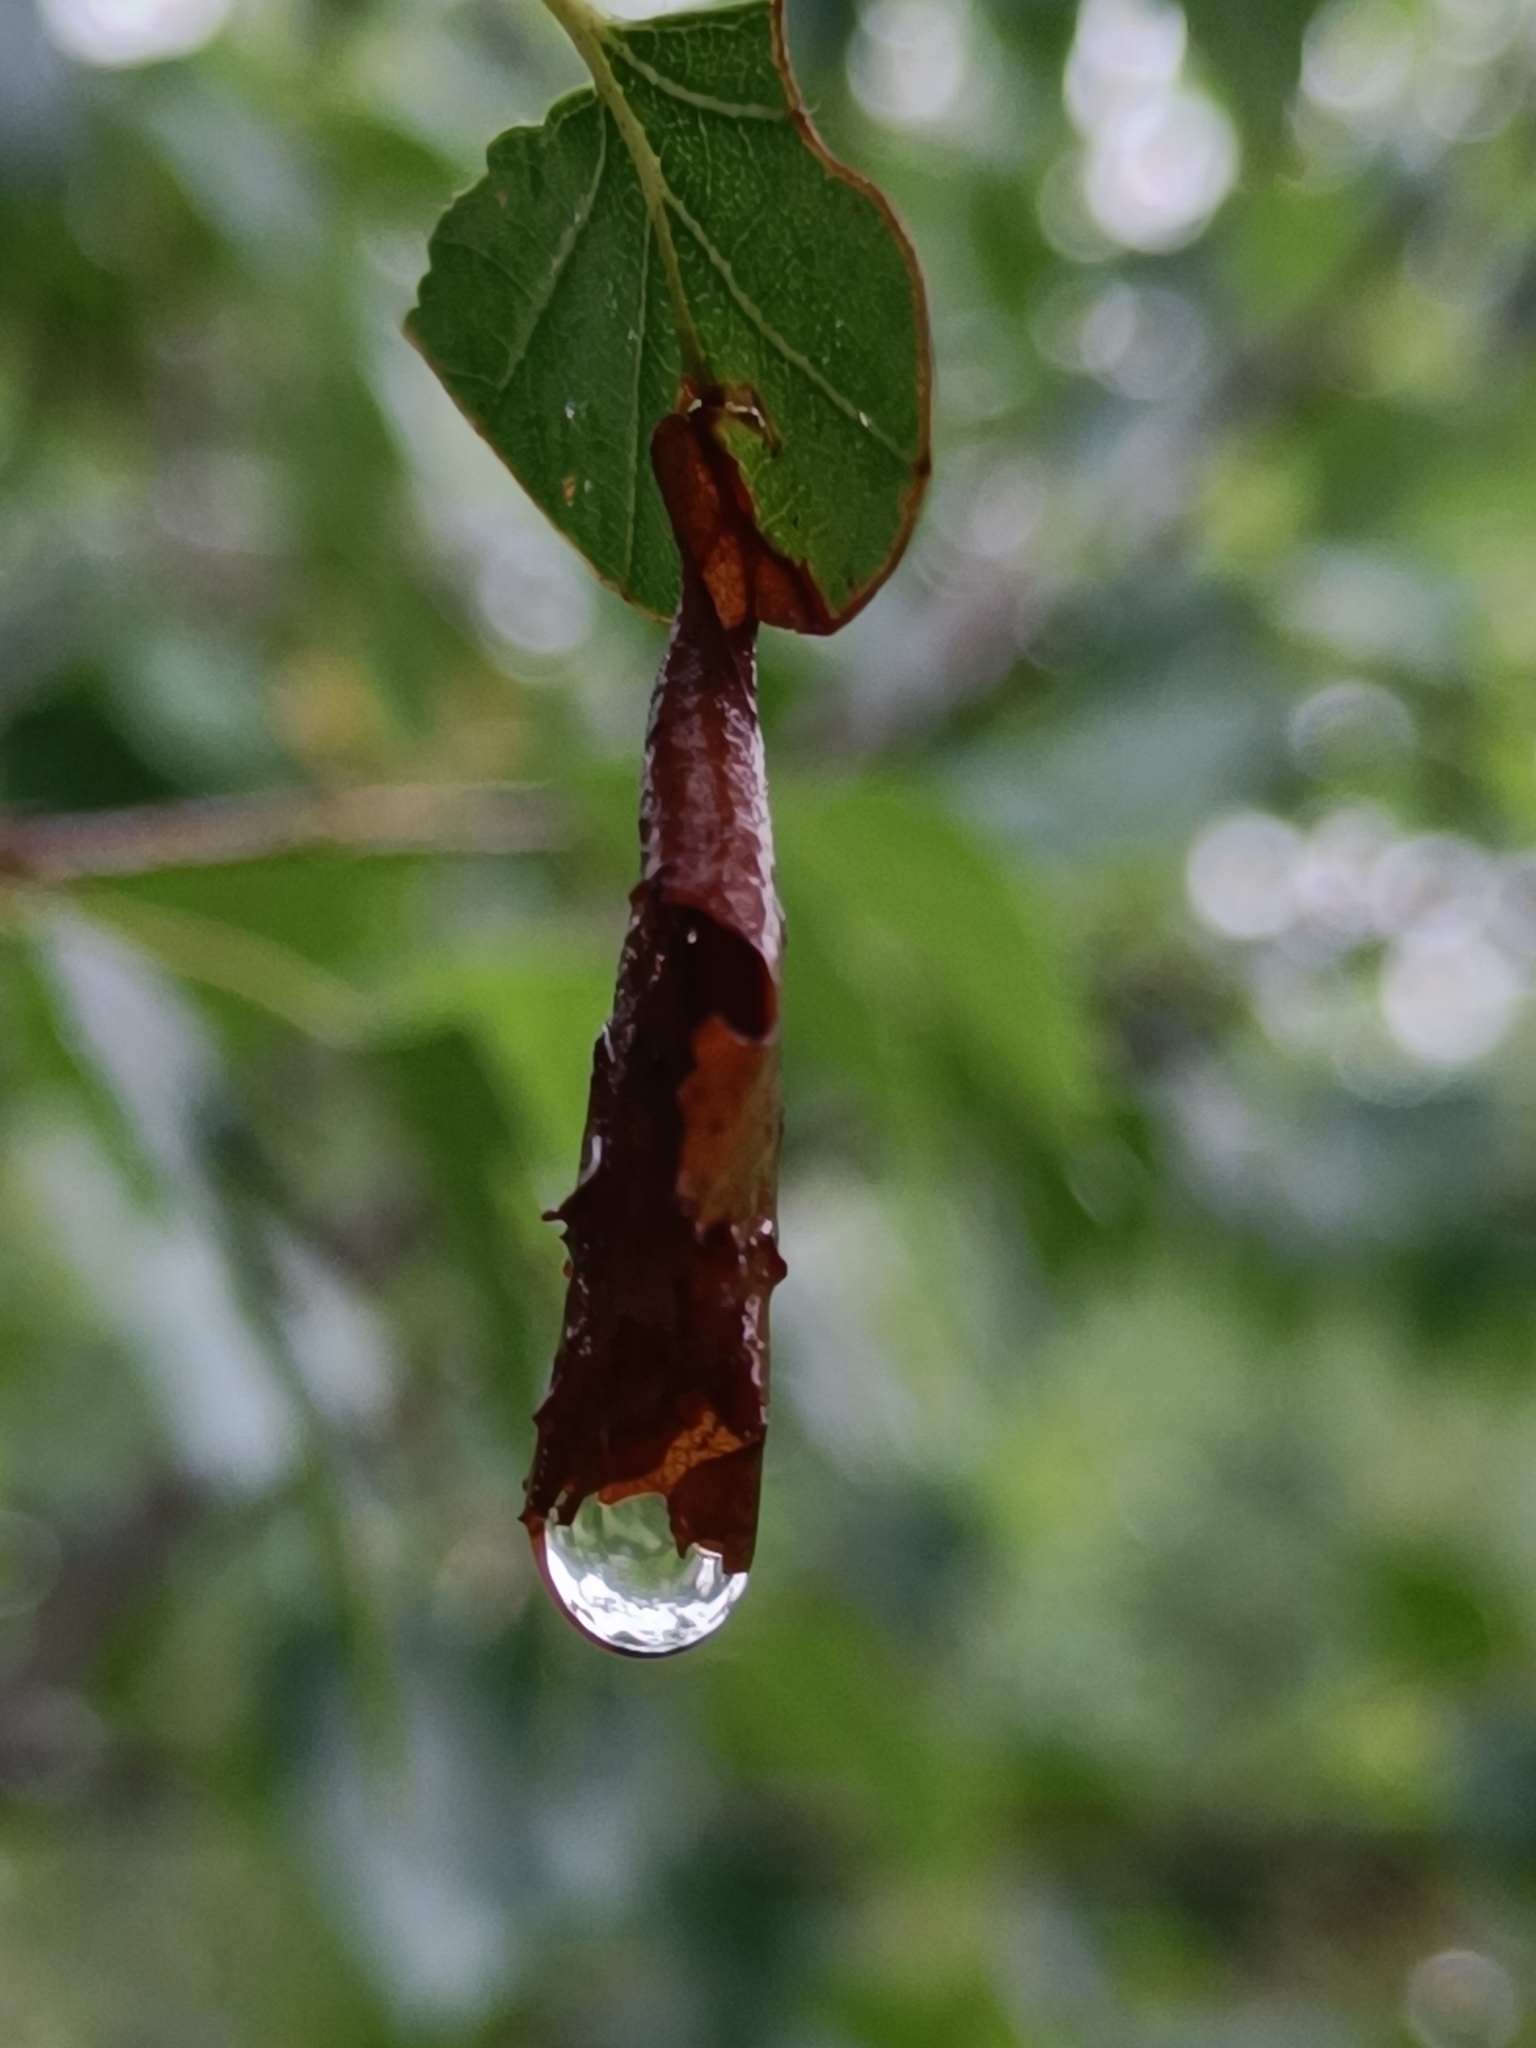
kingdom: Animalia
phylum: Arthropoda
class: Insecta
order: Coleoptera
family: Attelabidae
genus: Deporaus
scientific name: Deporaus betulae
